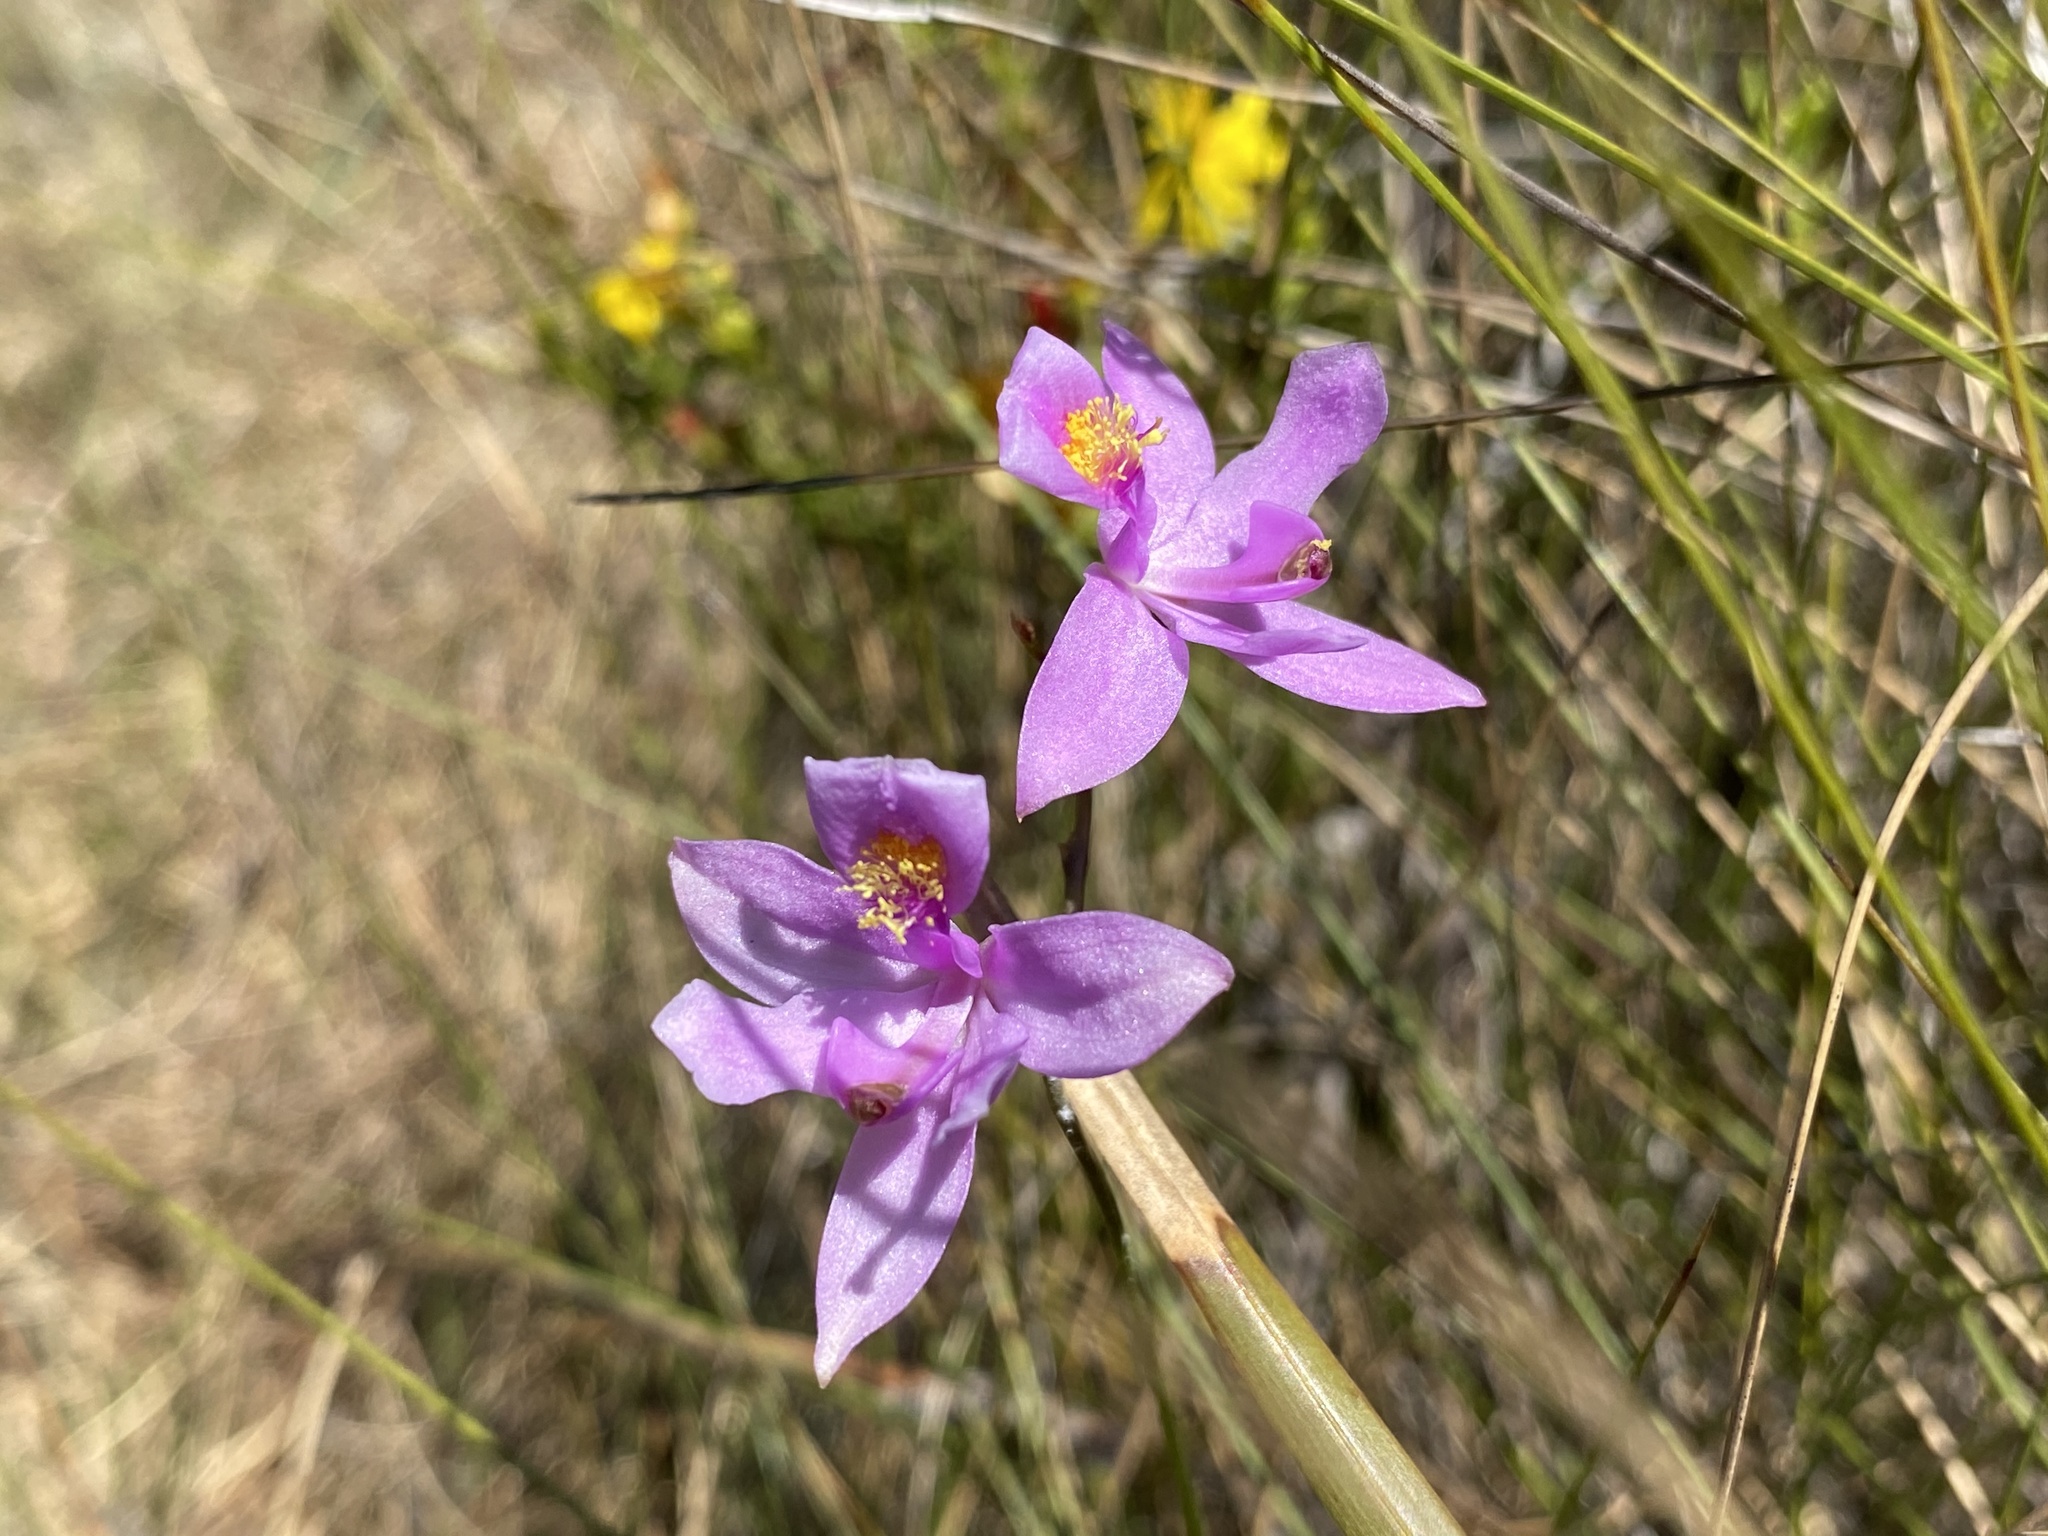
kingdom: Plantae
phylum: Tracheophyta
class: Liliopsida
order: Asparagales
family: Orchidaceae
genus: Calopogon
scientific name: Calopogon barbatus
